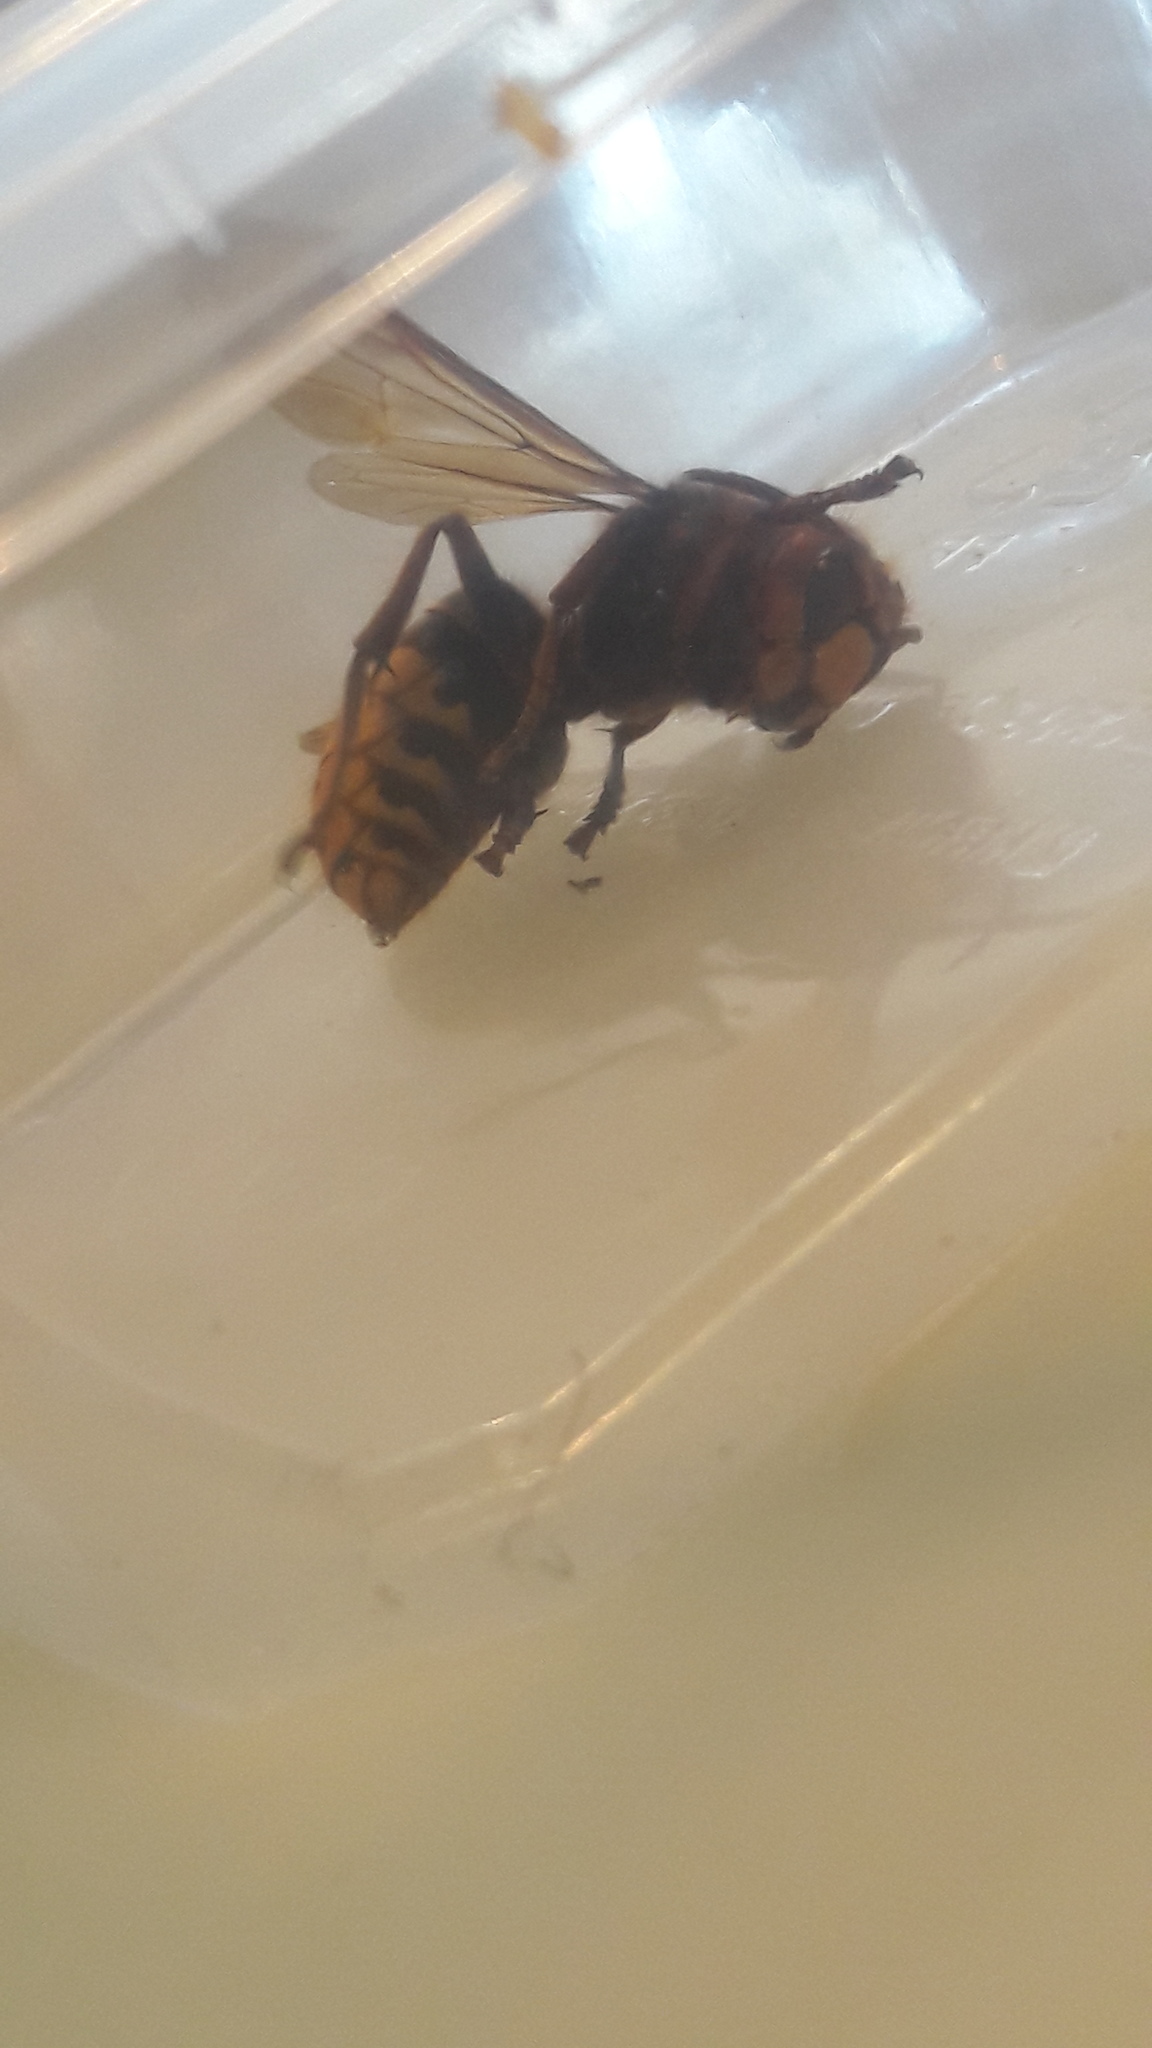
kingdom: Animalia
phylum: Arthropoda
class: Insecta
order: Hymenoptera
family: Vespidae
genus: Vespa
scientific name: Vespa crabro
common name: Hornet
